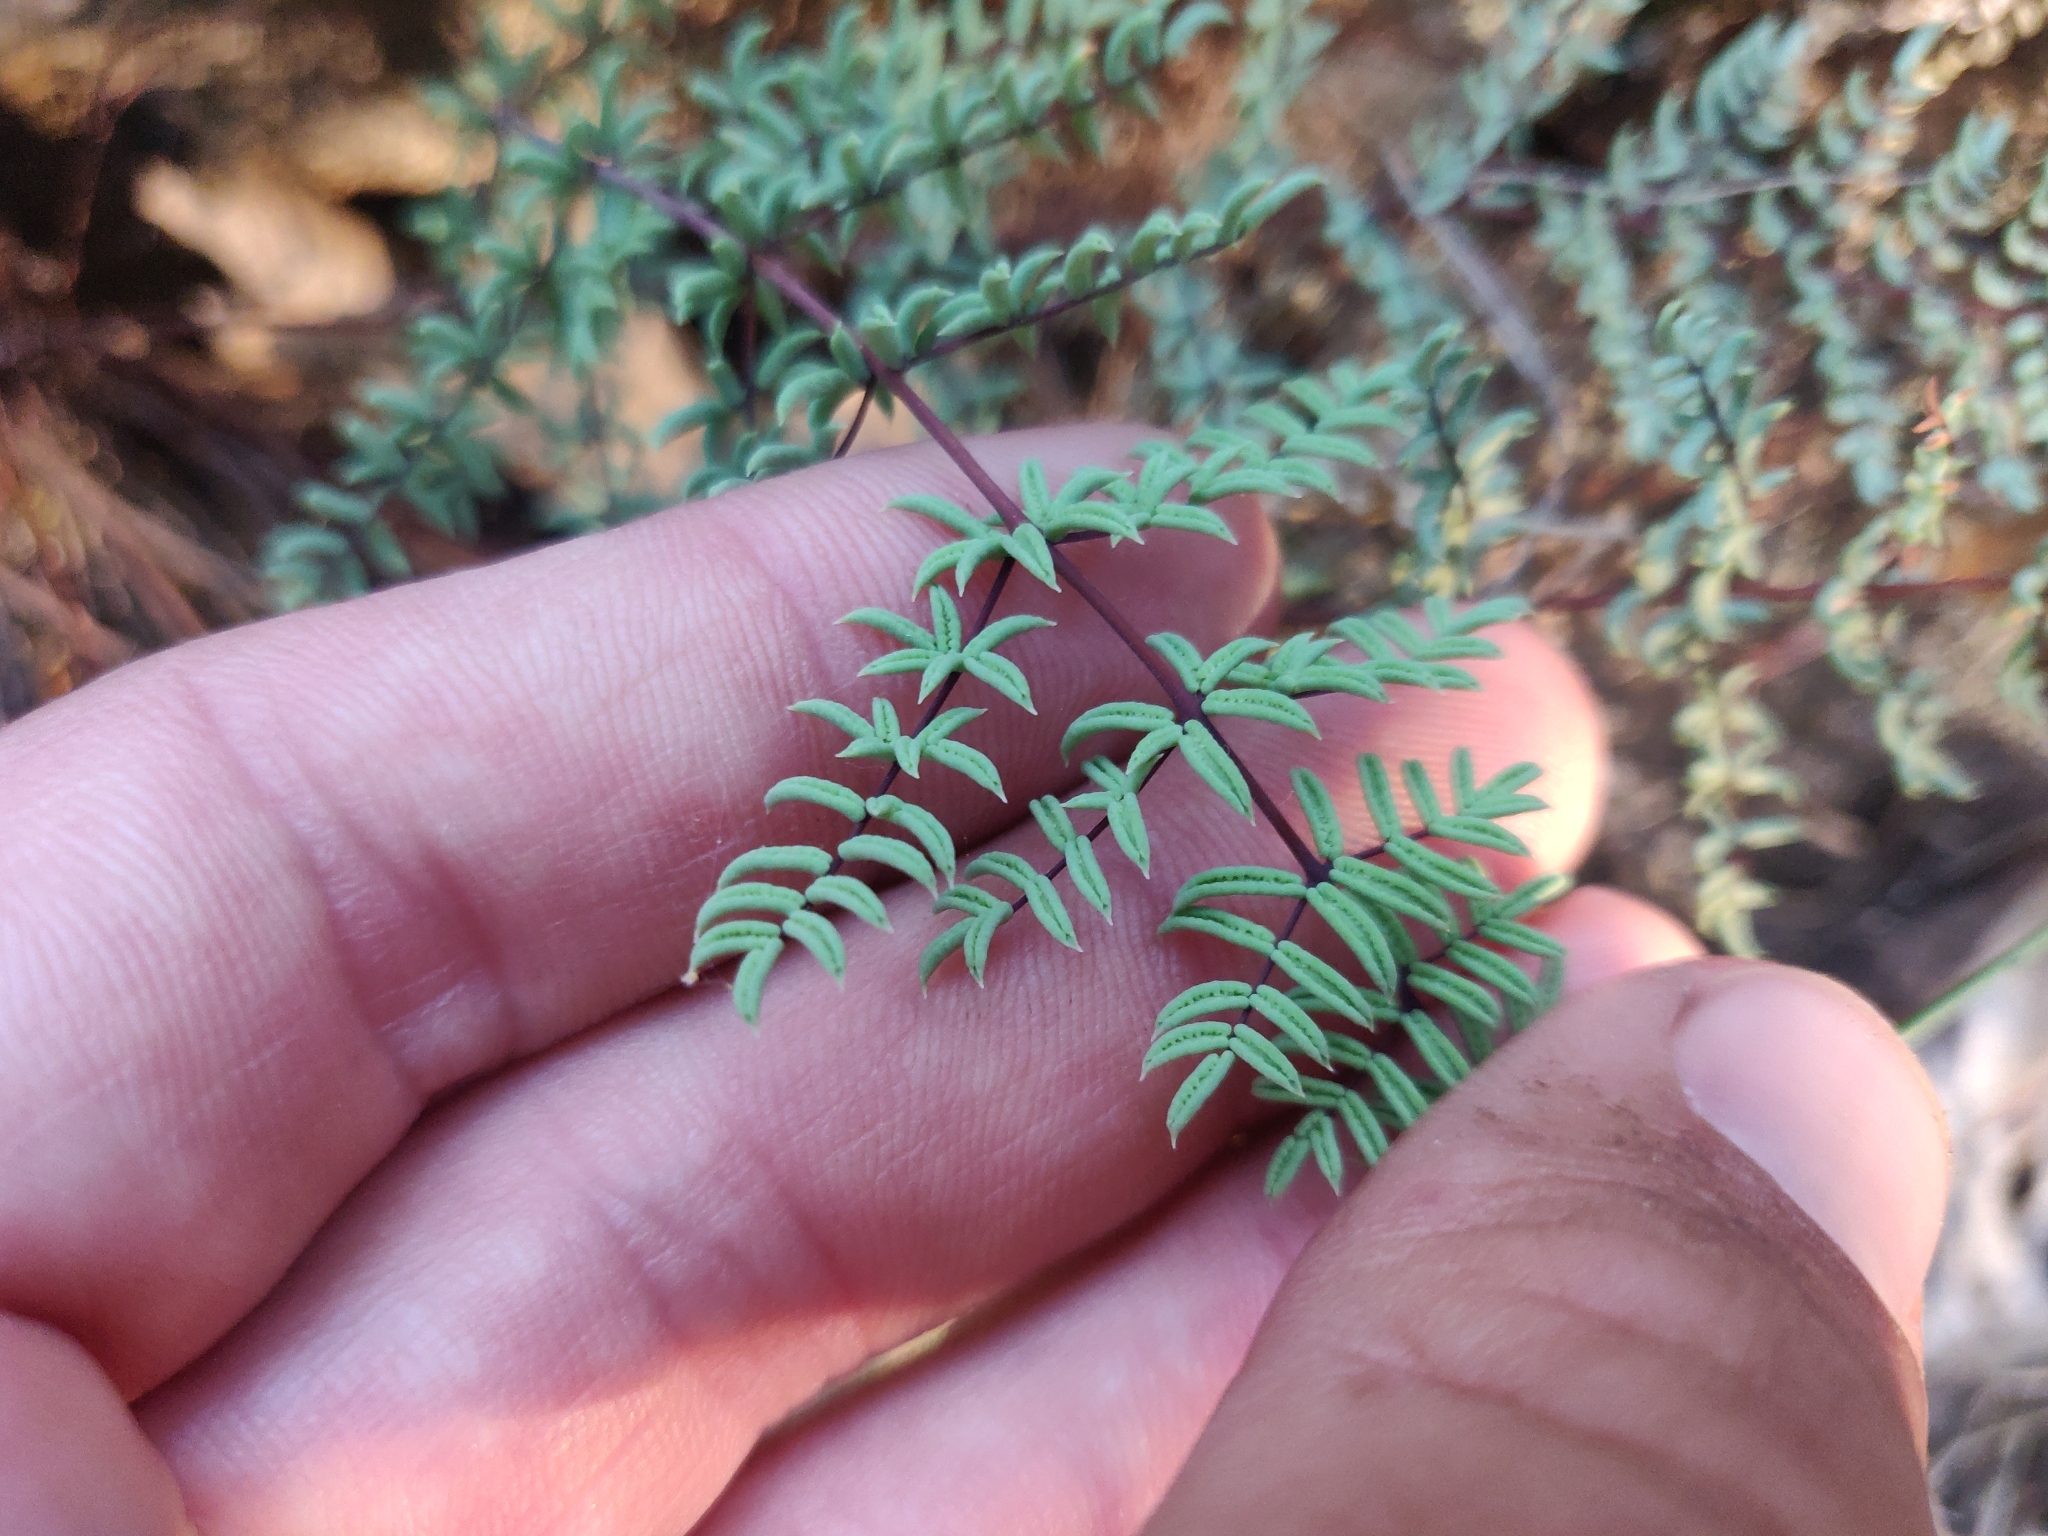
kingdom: Plantae
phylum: Tracheophyta
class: Polypodiopsida
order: Polypodiales
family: Pteridaceae
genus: Pellaea
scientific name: Pellaea mucronata
